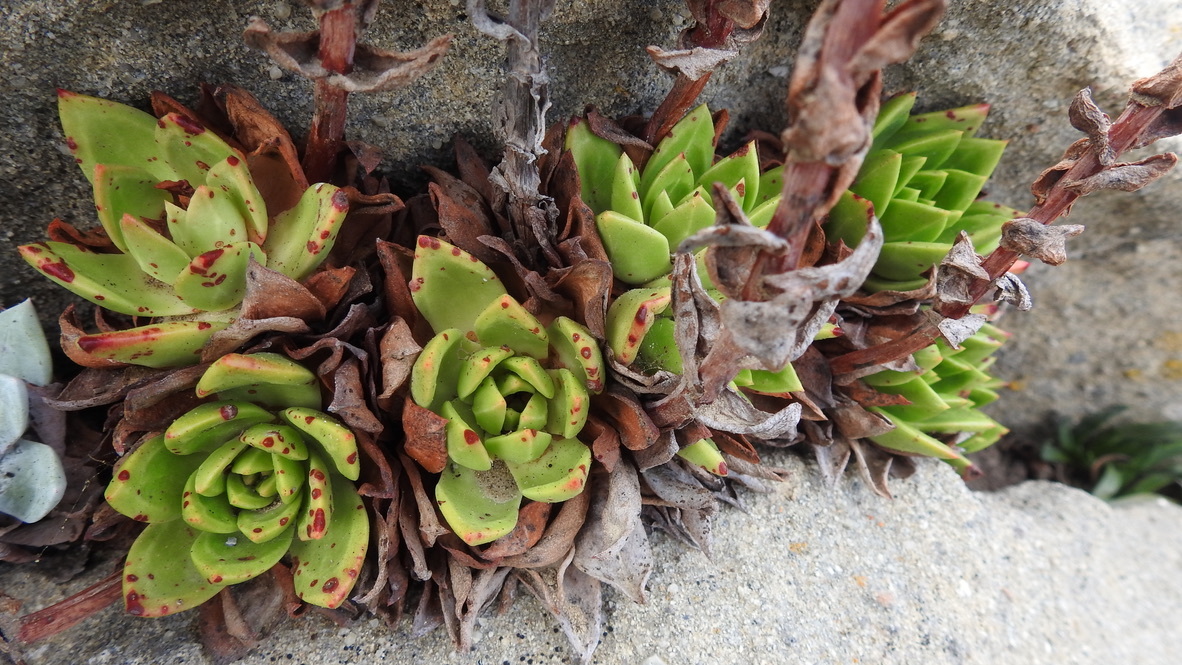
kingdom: Plantae
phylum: Tracheophyta
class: Magnoliopsida
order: Saxifragales
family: Crassulaceae
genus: Dudleya
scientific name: Dudleya farinosa
